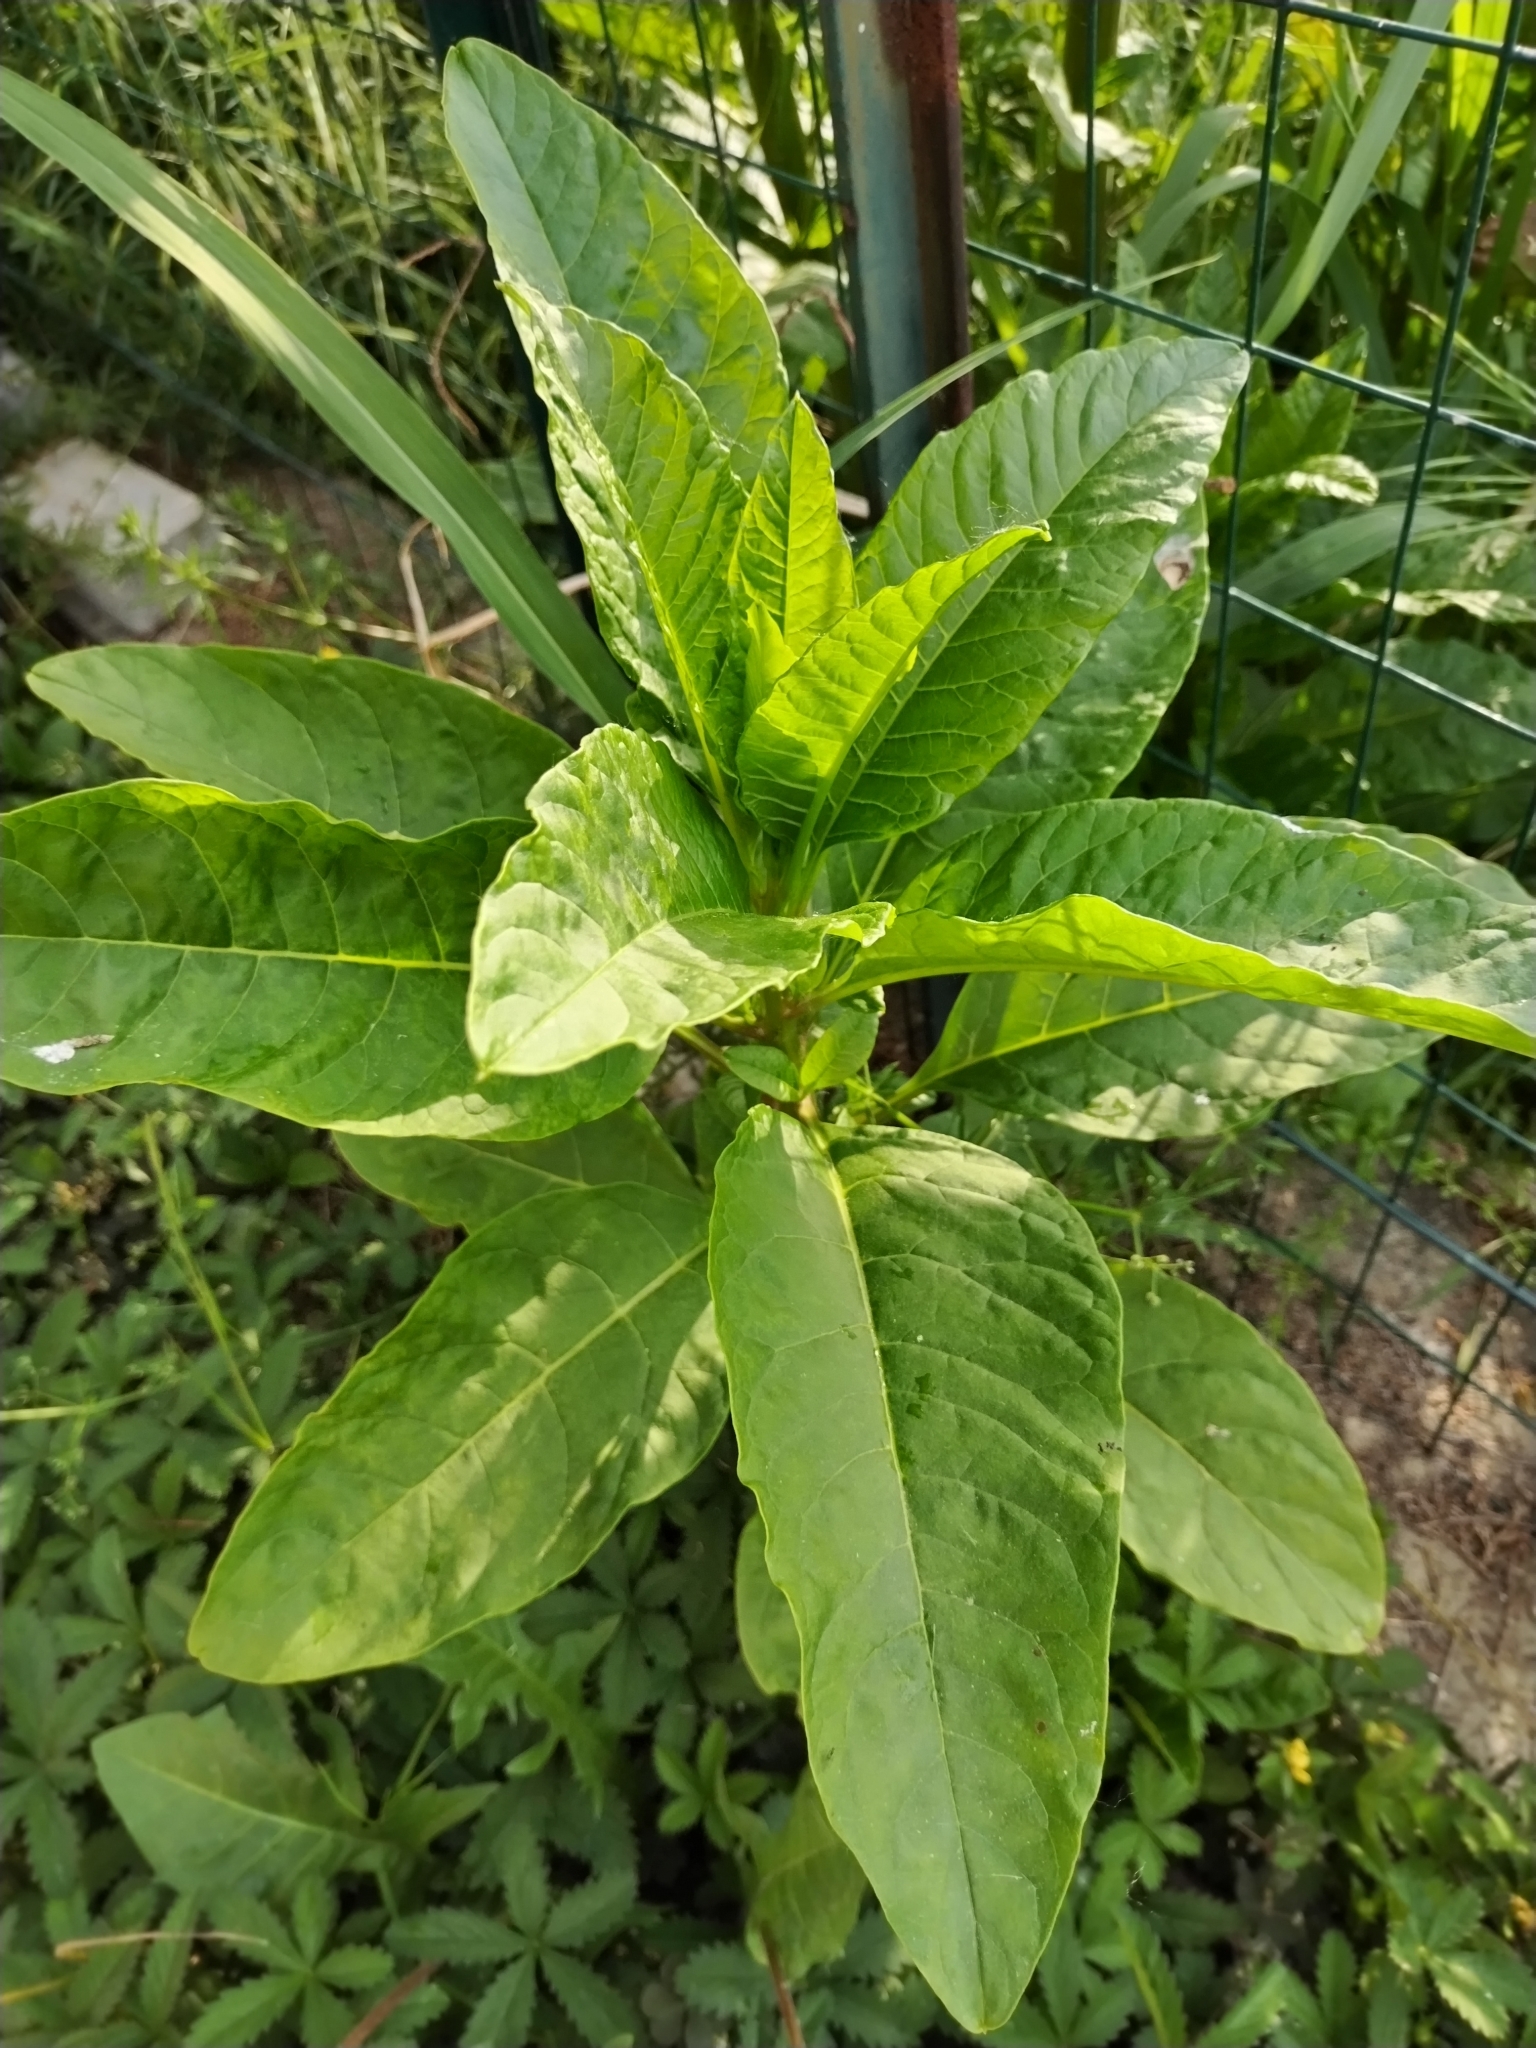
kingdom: Plantae
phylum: Tracheophyta
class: Magnoliopsida
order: Caryophyllales
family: Phytolaccaceae
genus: Phytolacca
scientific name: Phytolacca americana
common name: American pokeweed
